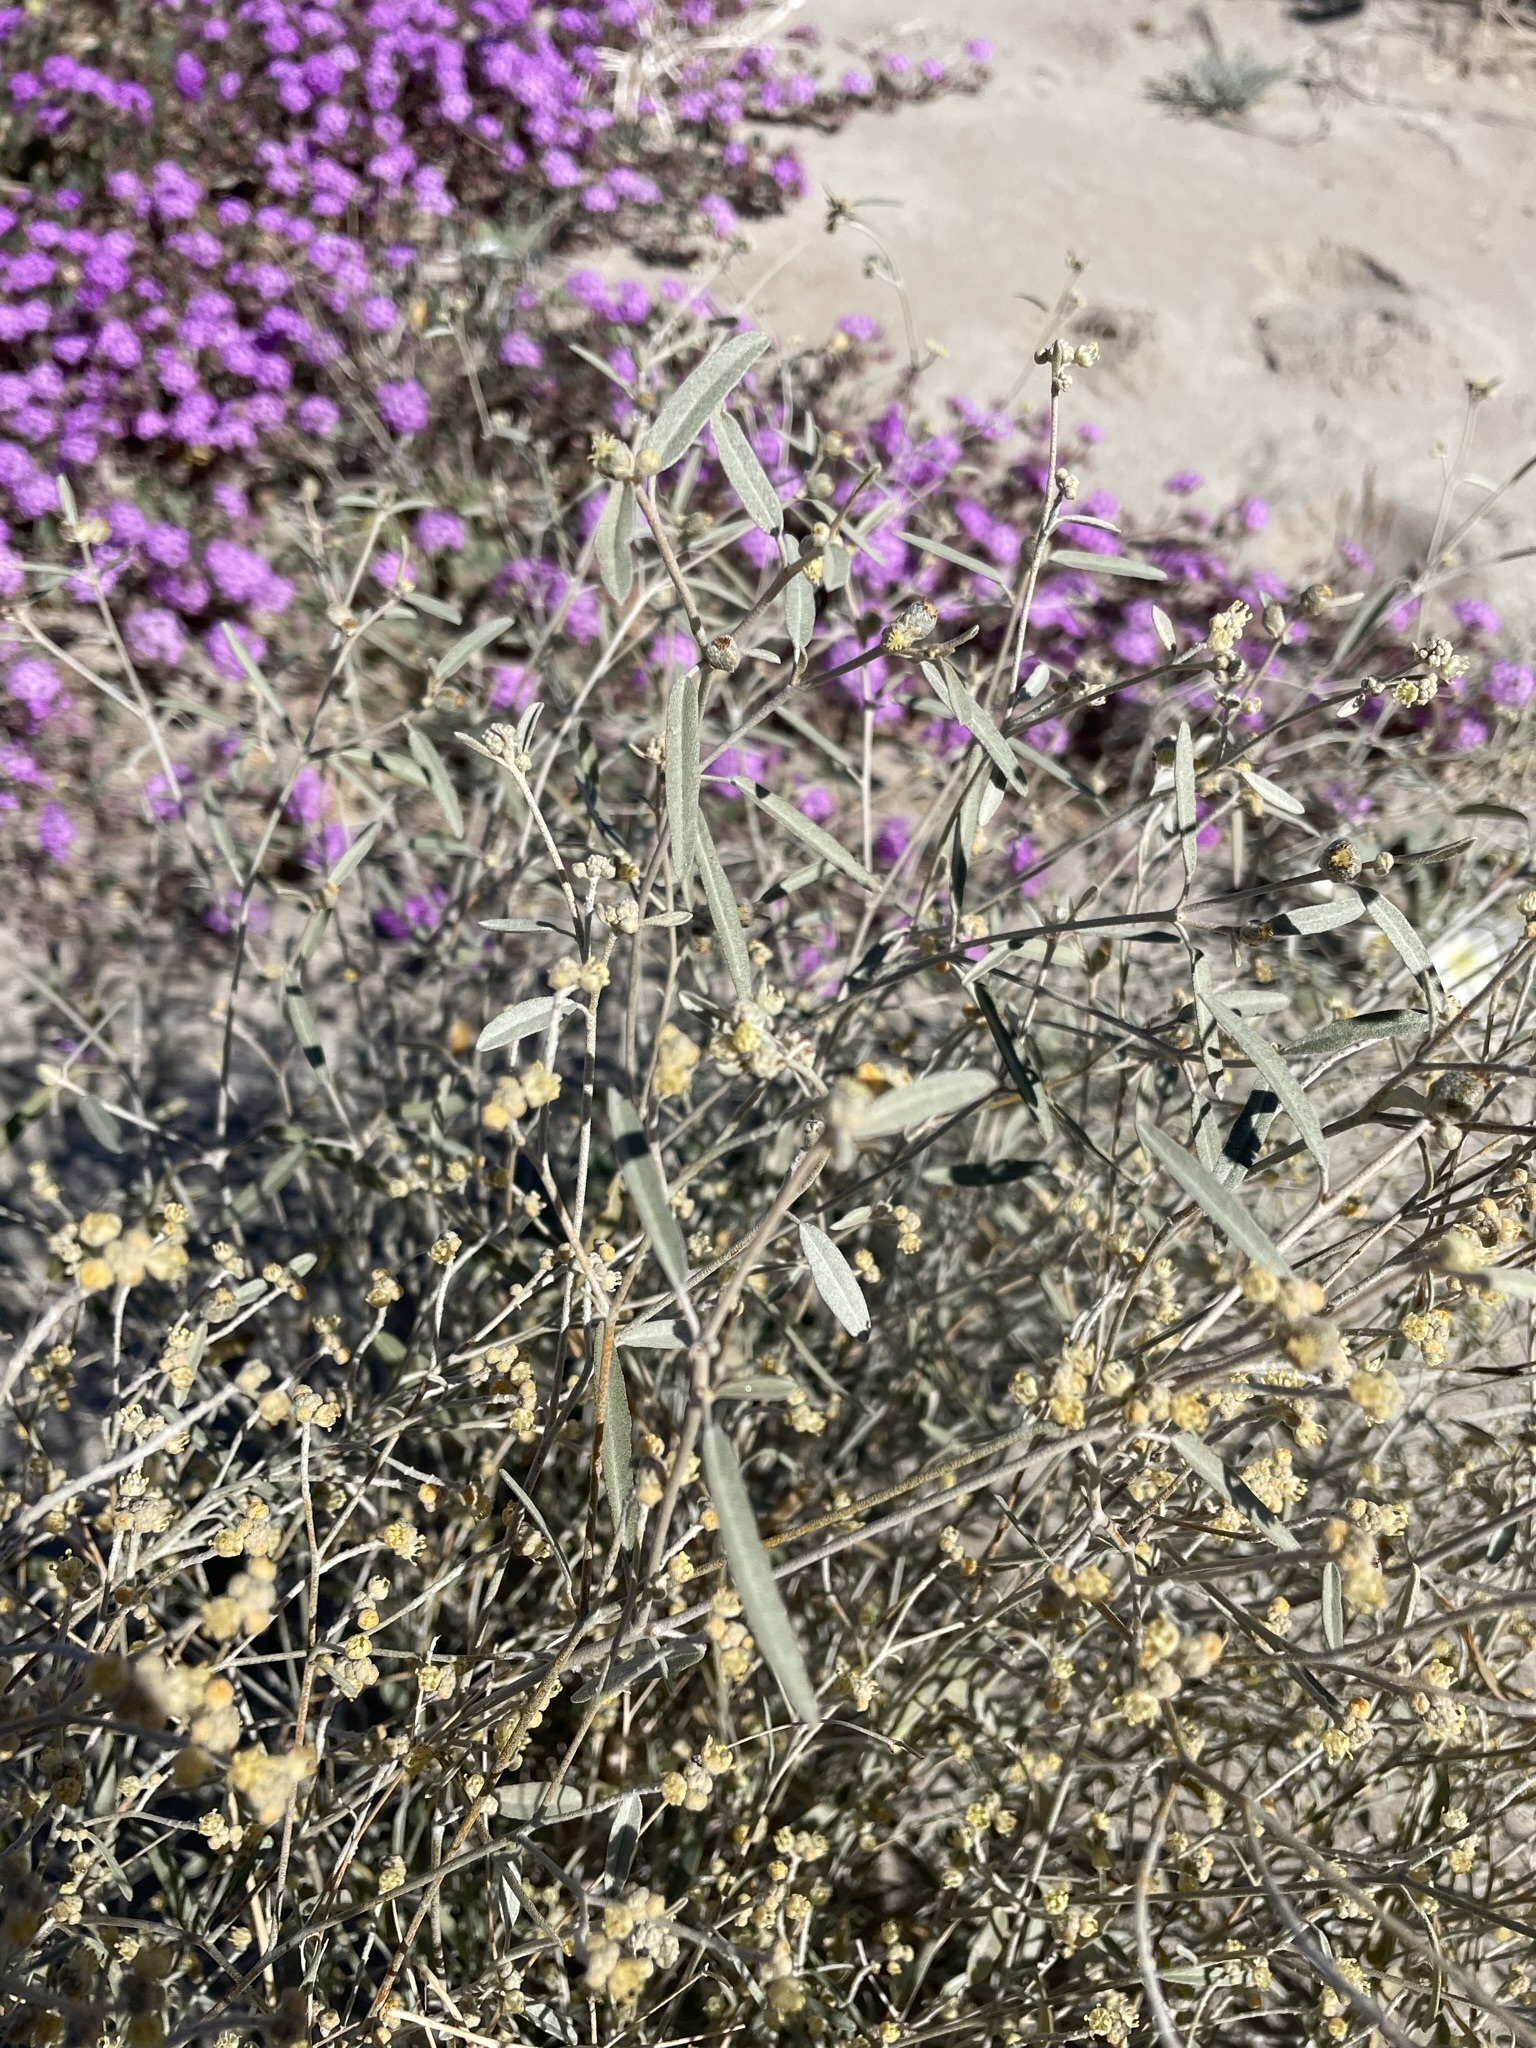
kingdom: Plantae
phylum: Tracheophyta
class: Magnoliopsida
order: Malpighiales
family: Euphorbiaceae
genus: Croton
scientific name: Croton californicus
